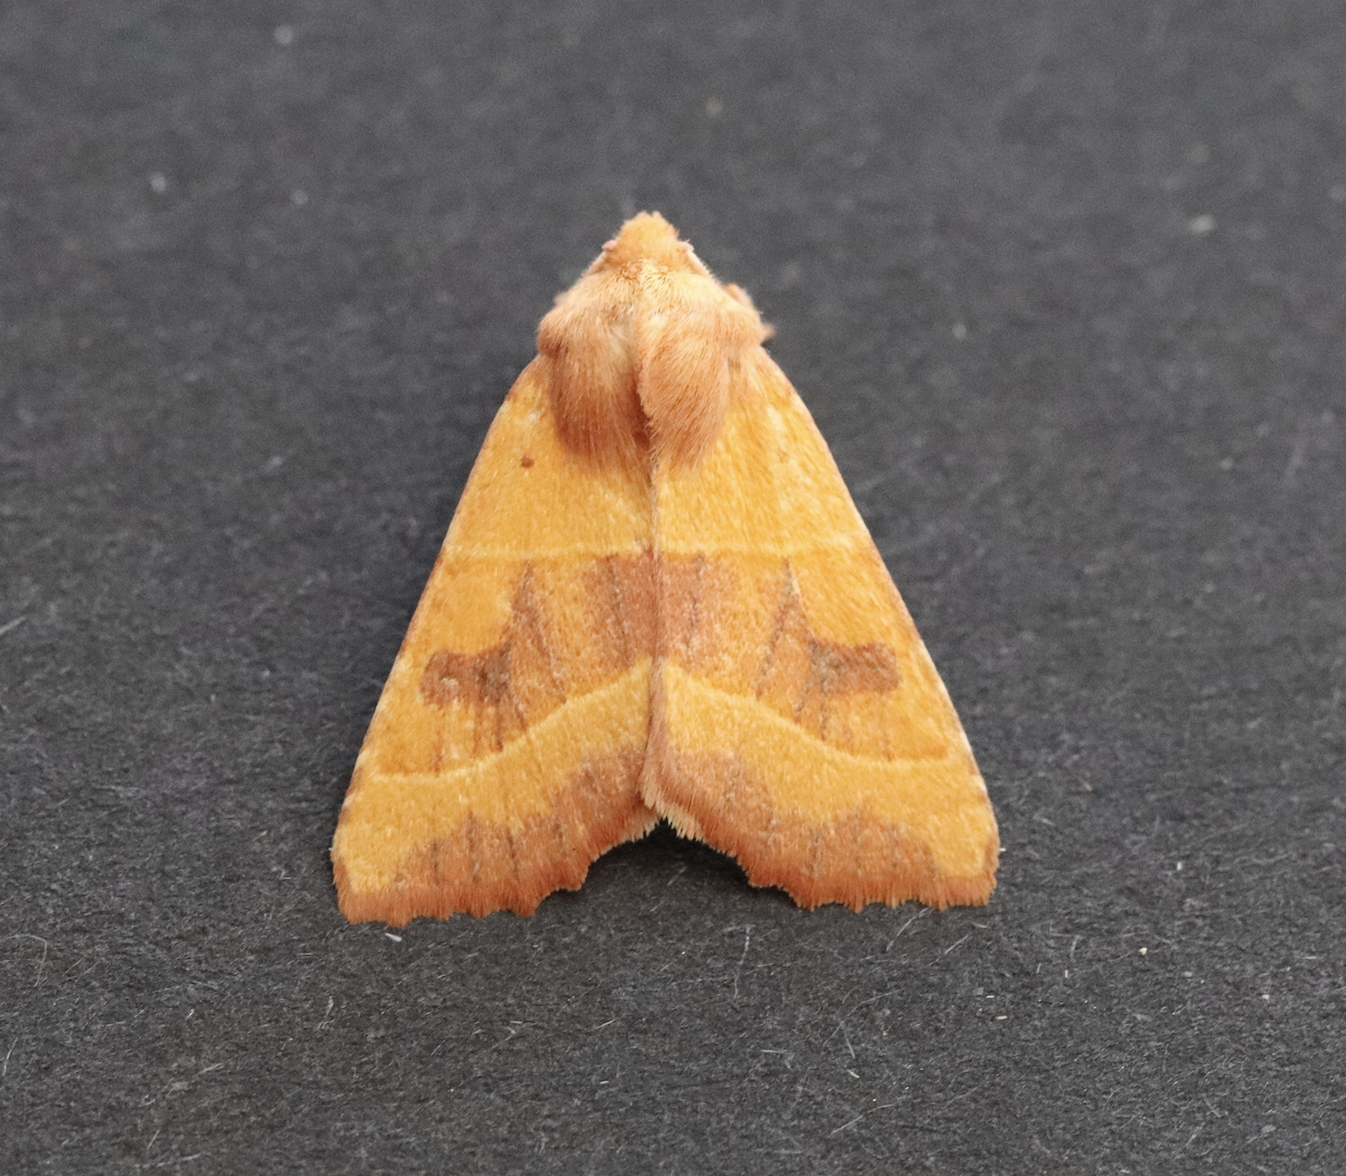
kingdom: Animalia
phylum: Arthropoda
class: Insecta
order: Lepidoptera
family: Noctuidae
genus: Atethmia
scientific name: Atethmia centrago
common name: Centre-barred sallow
